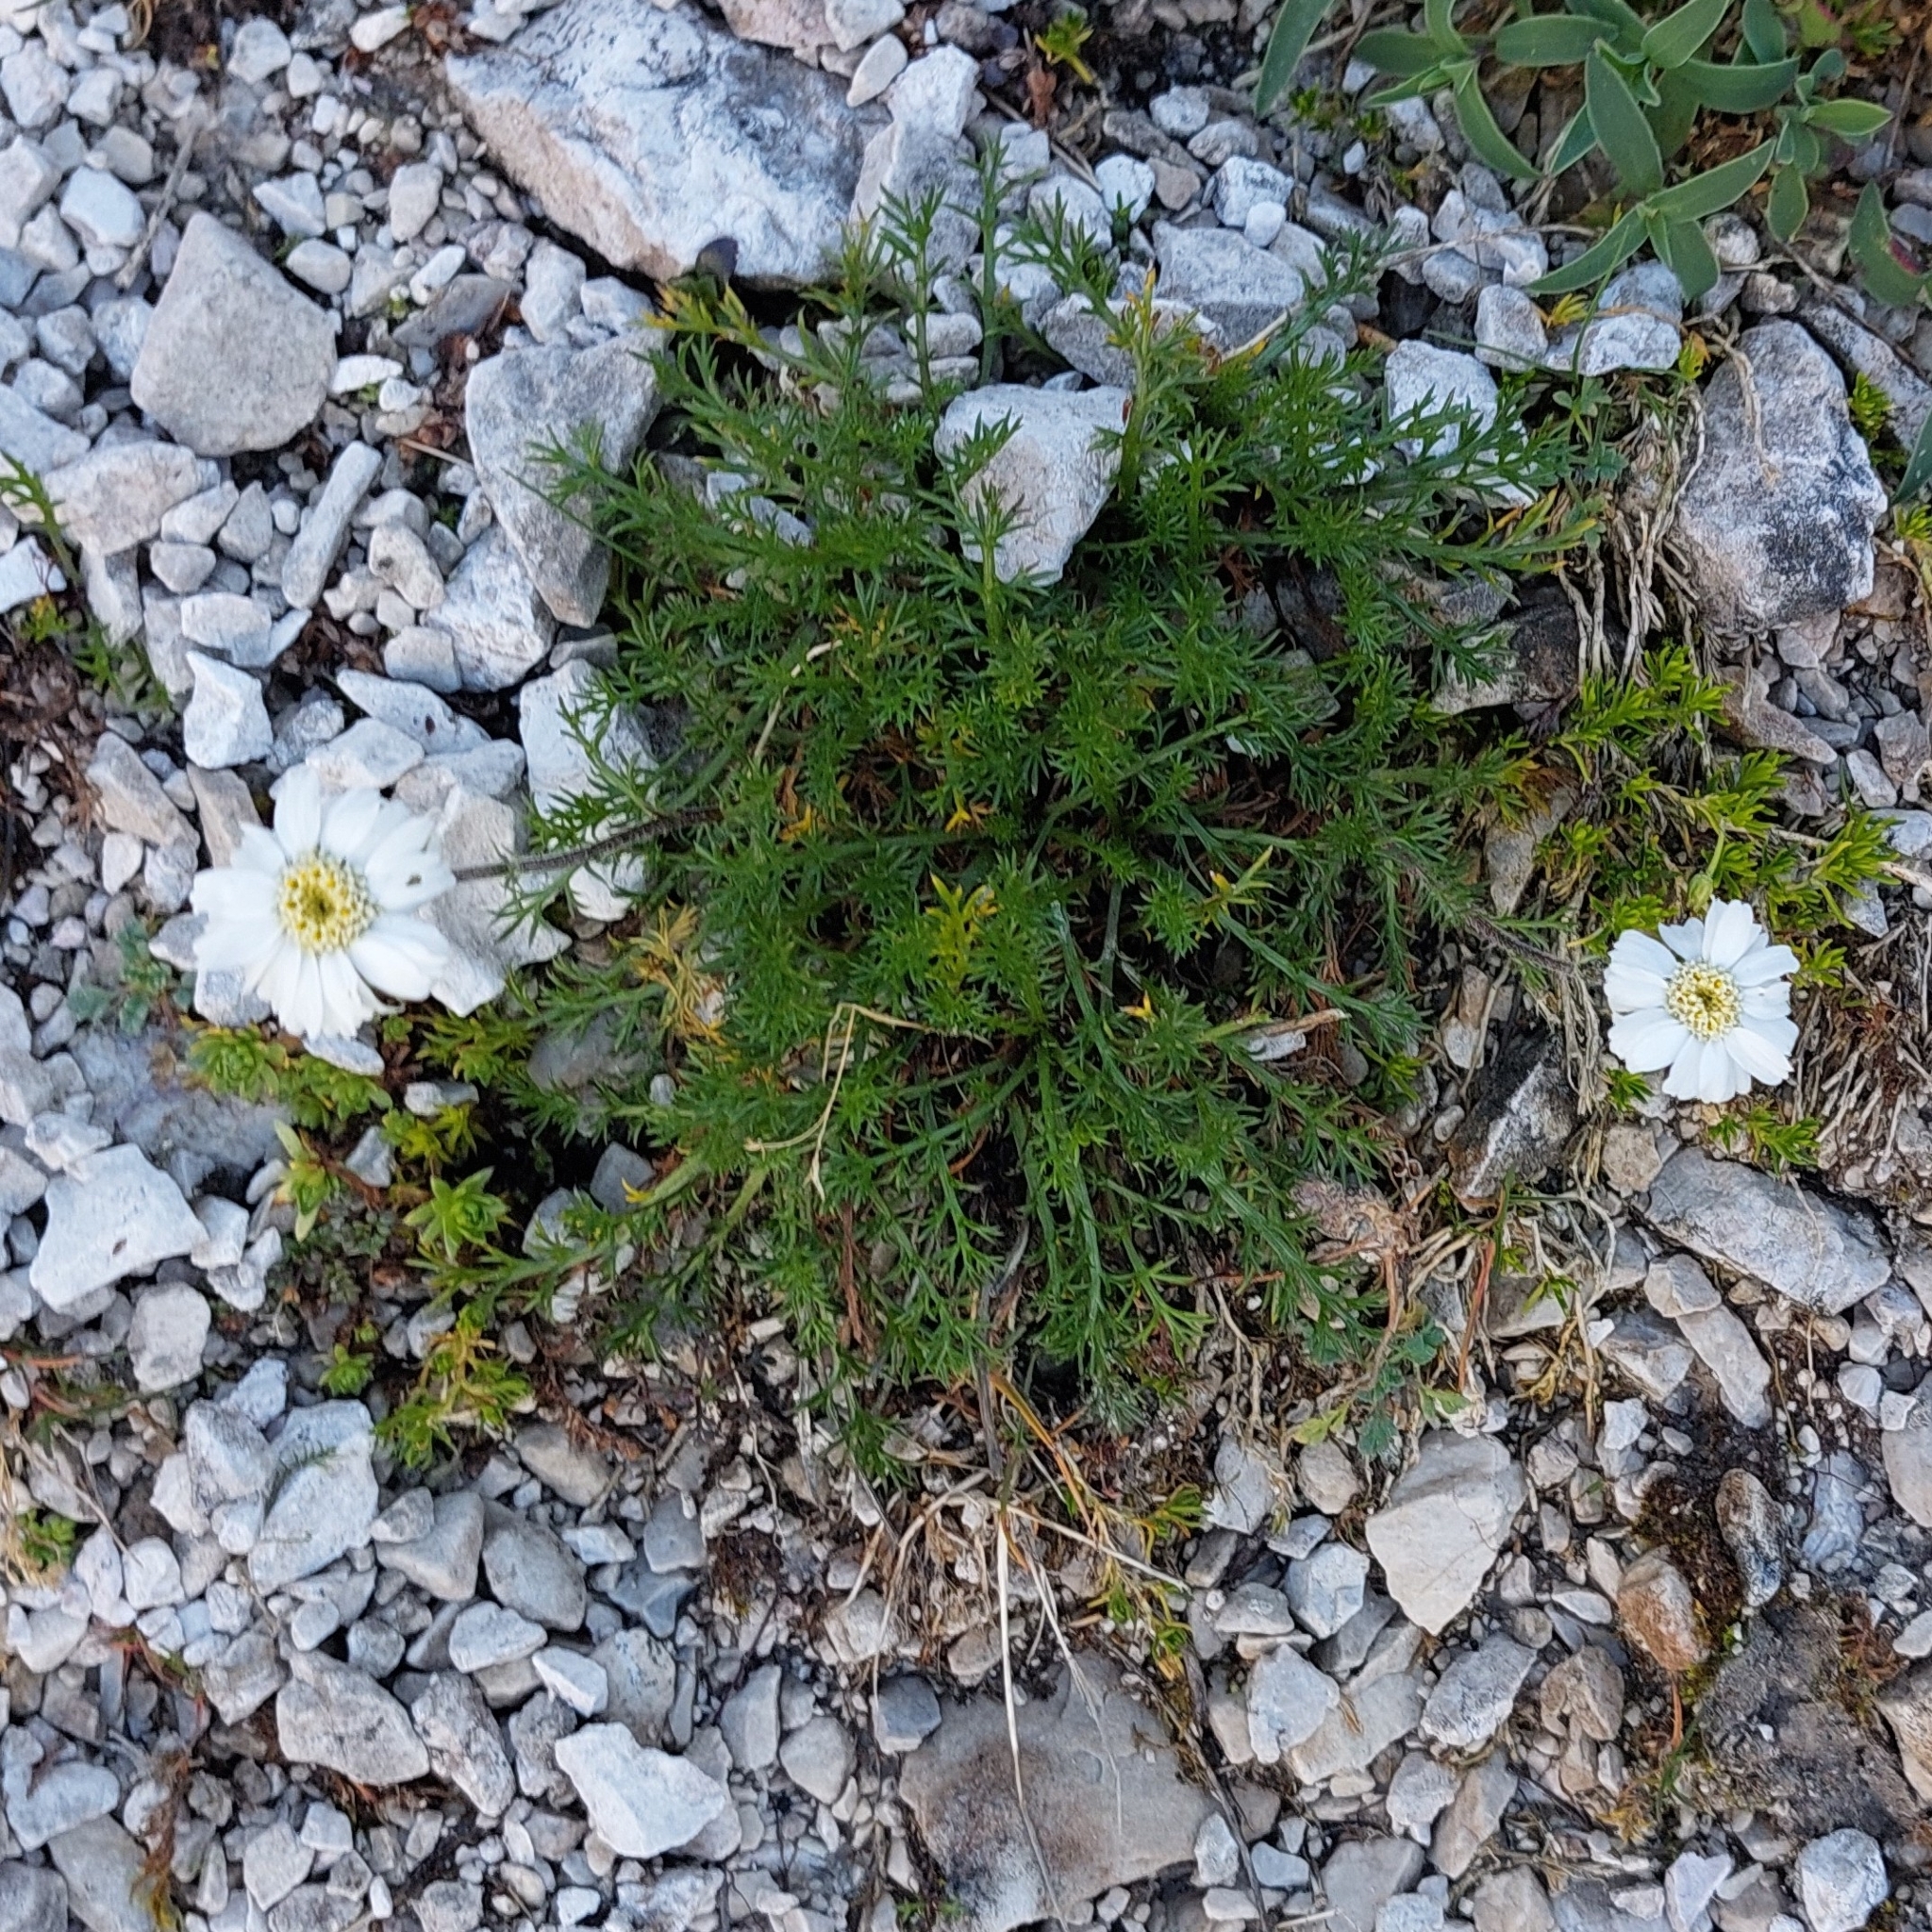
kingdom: Plantae
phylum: Tracheophyta
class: Magnoliopsida
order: Asterales
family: Asteraceae
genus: Achillea
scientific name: Achillea oxyloba
